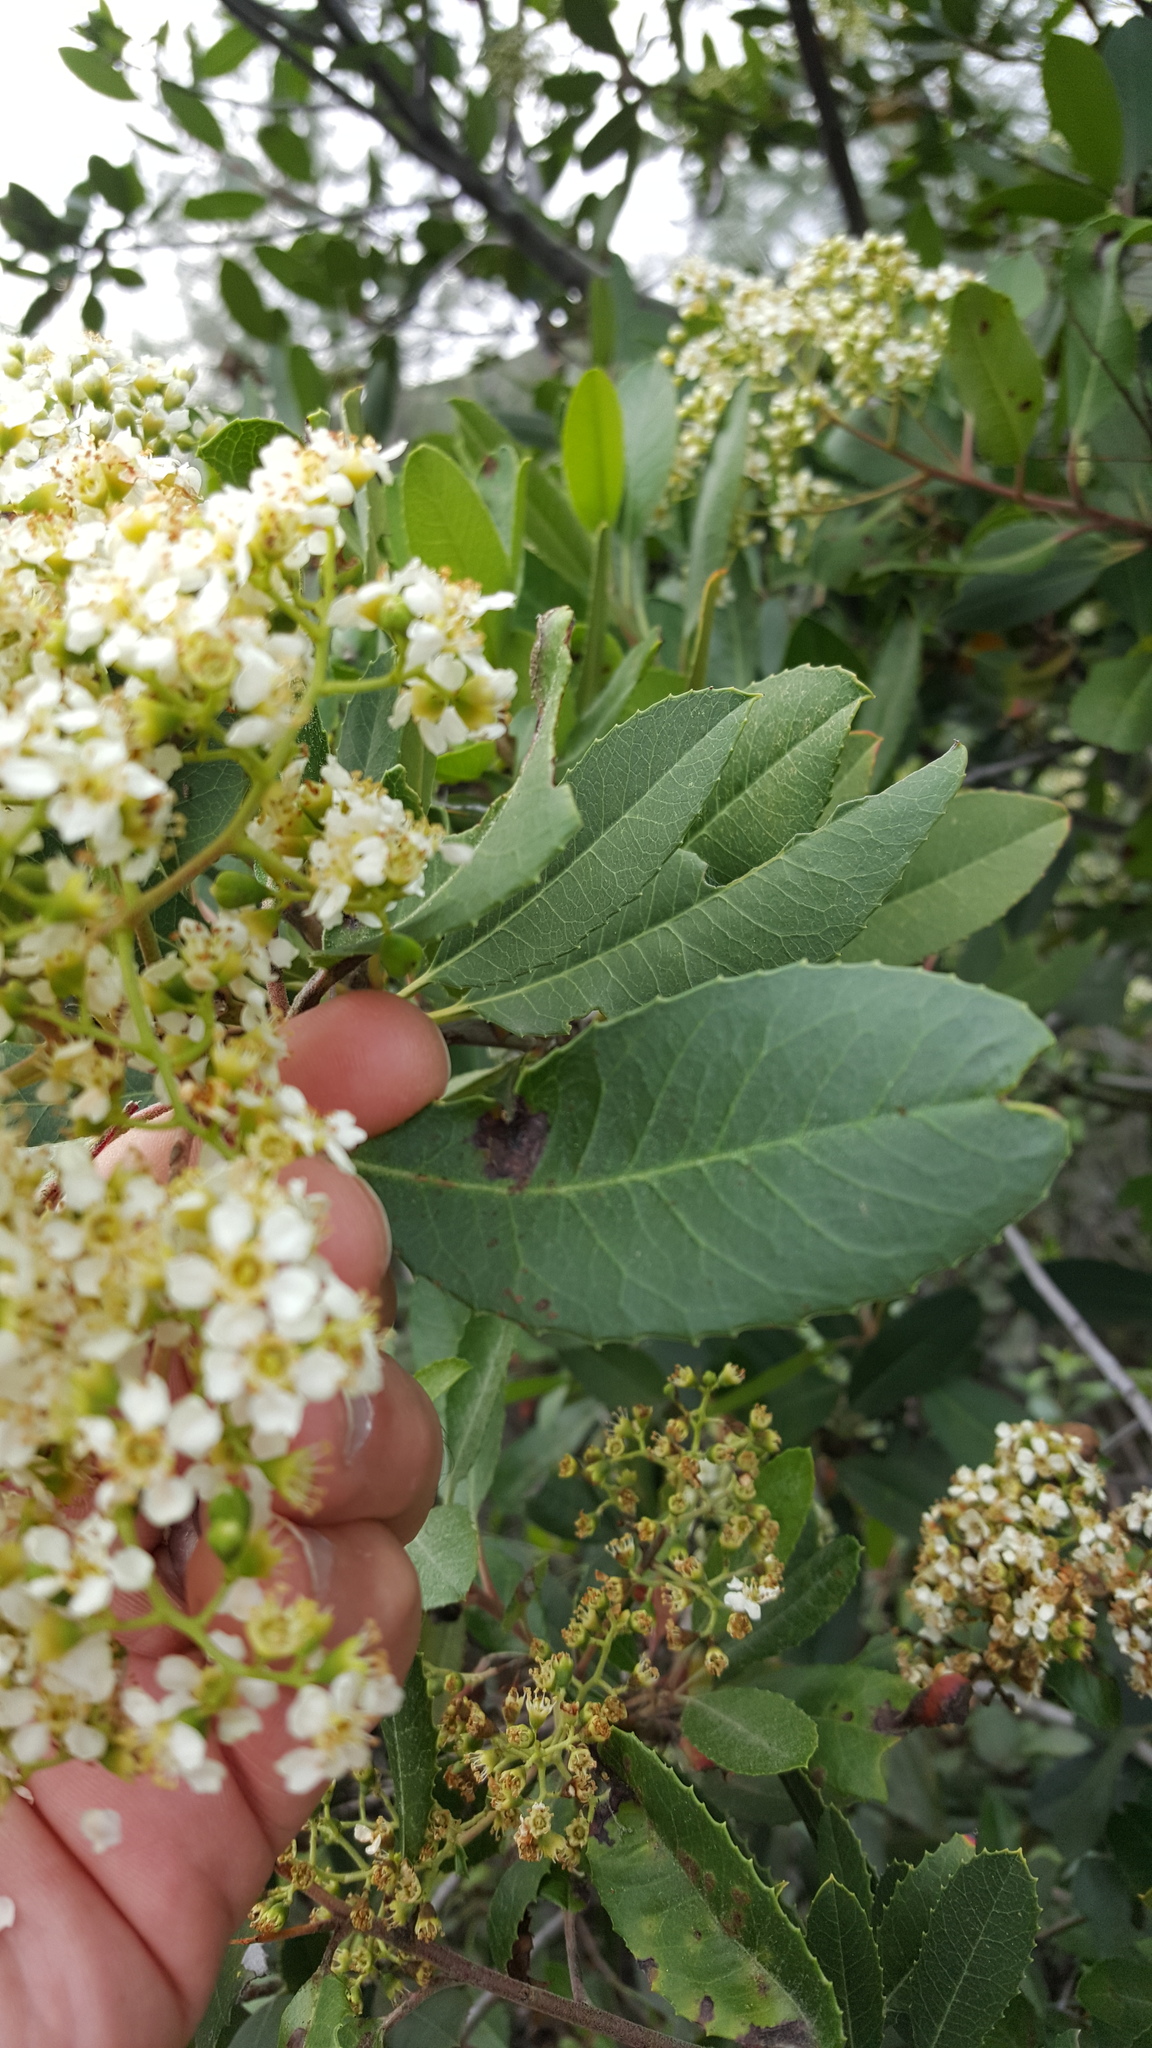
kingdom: Plantae
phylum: Tracheophyta
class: Magnoliopsida
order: Rosales
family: Rosaceae
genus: Heteromeles
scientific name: Heteromeles arbutifolia
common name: California-holly
